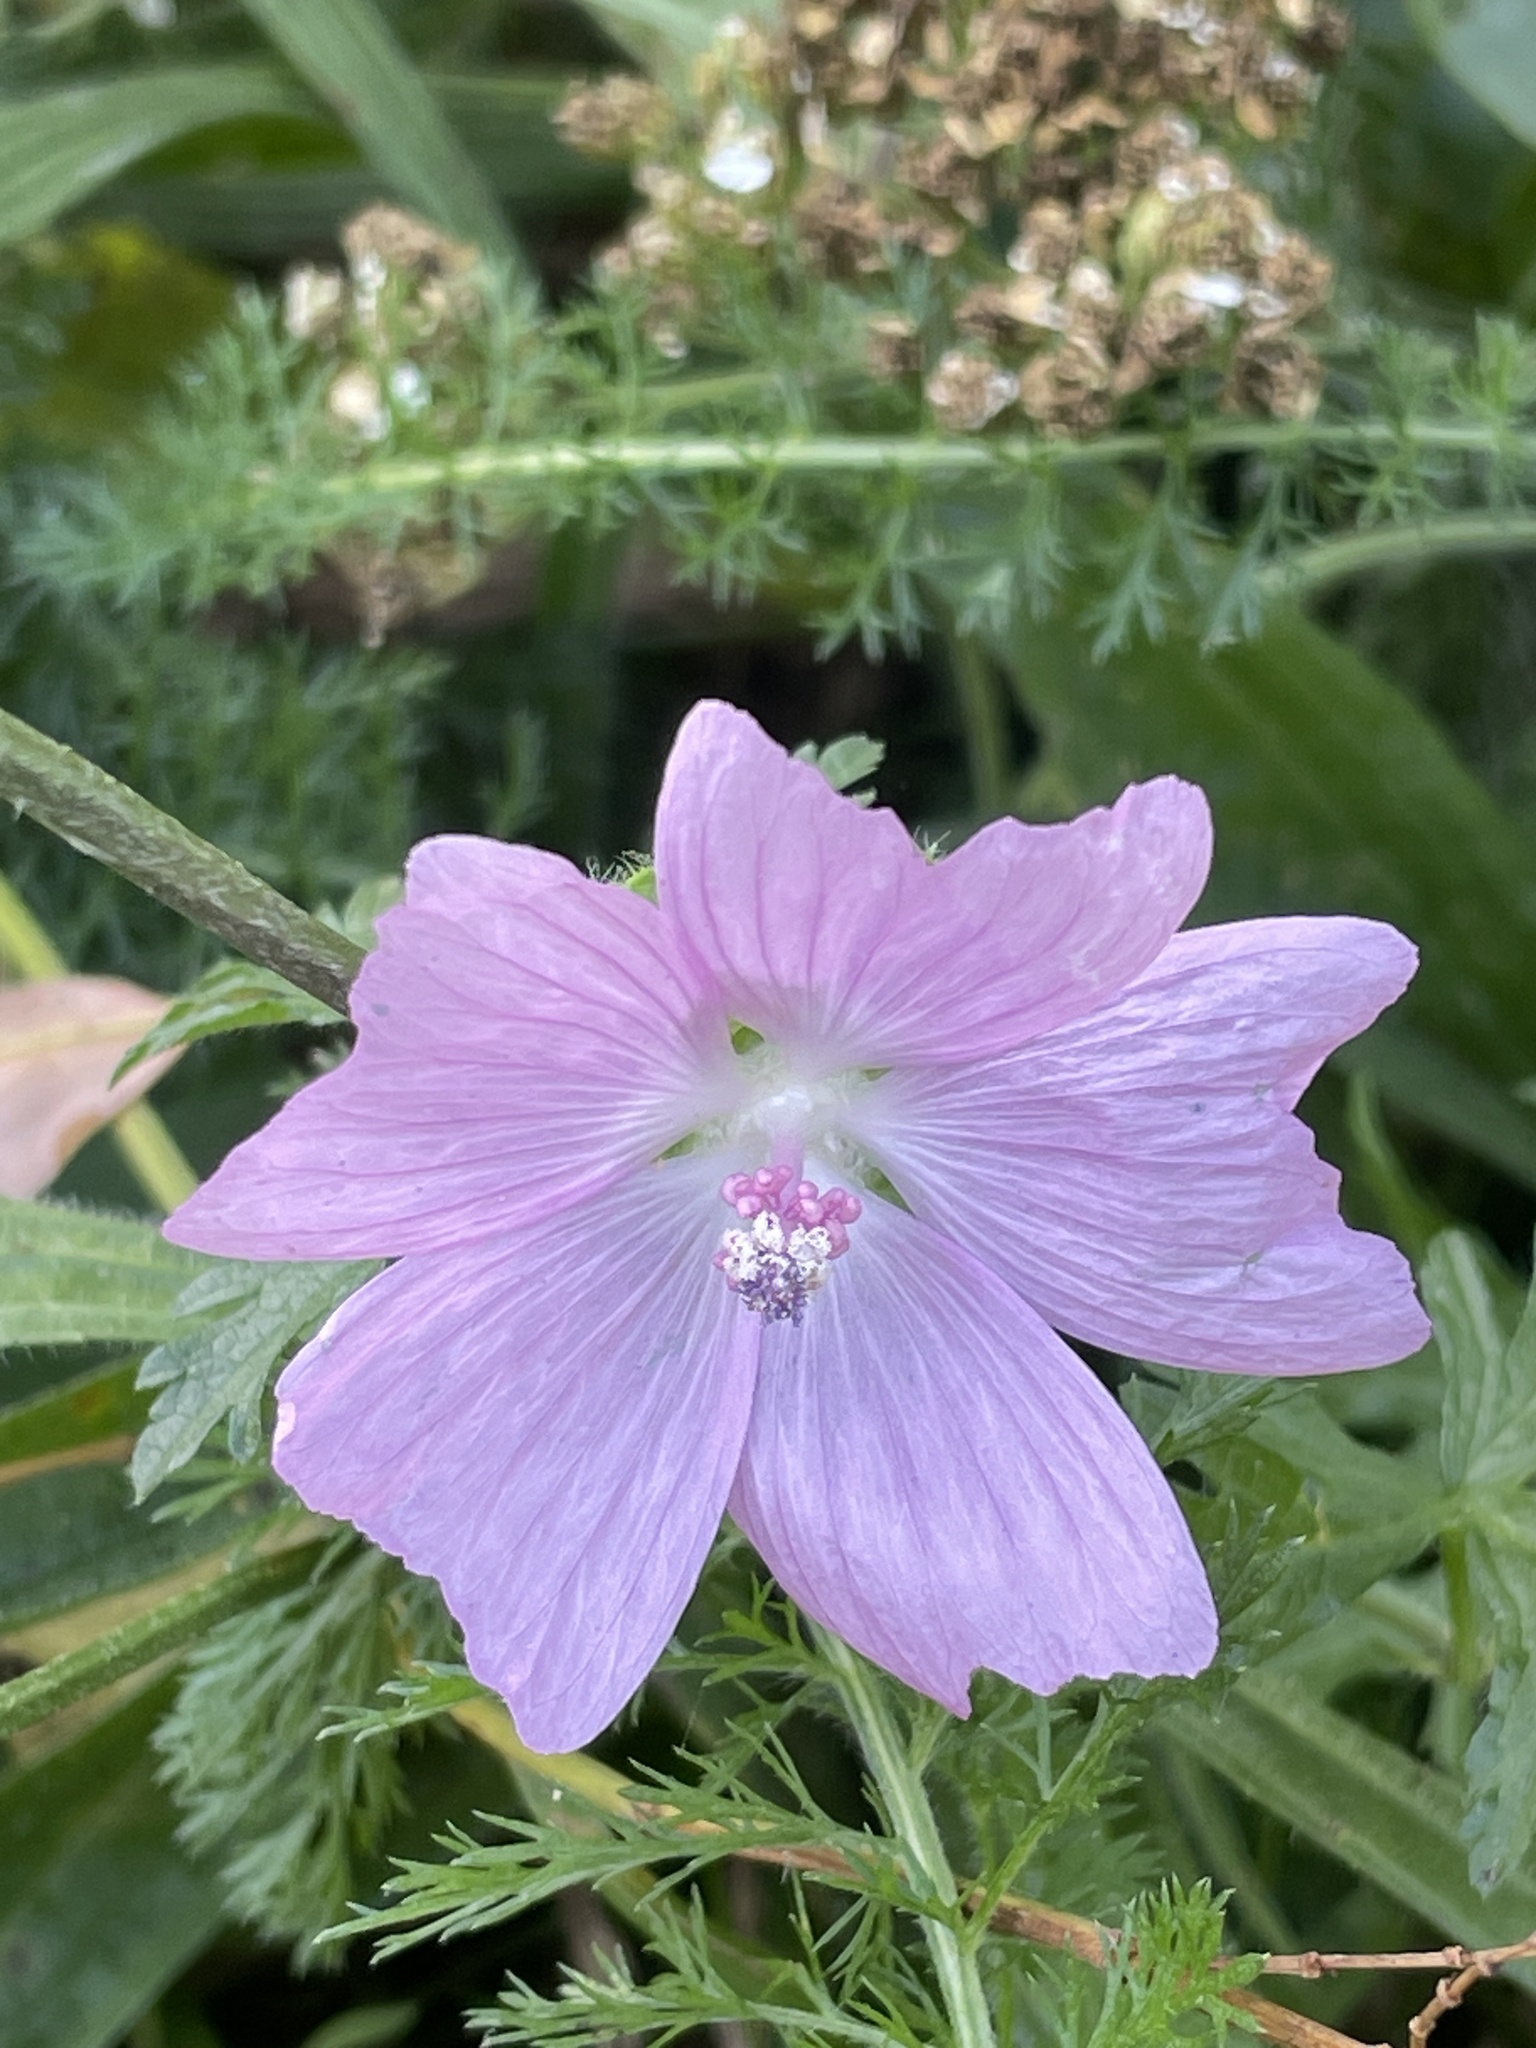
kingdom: Plantae
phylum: Tracheophyta
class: Magnoliopsida
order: Malvales
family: Malvaceae
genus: Malva
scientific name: Malva moschata
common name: Musk mallow
